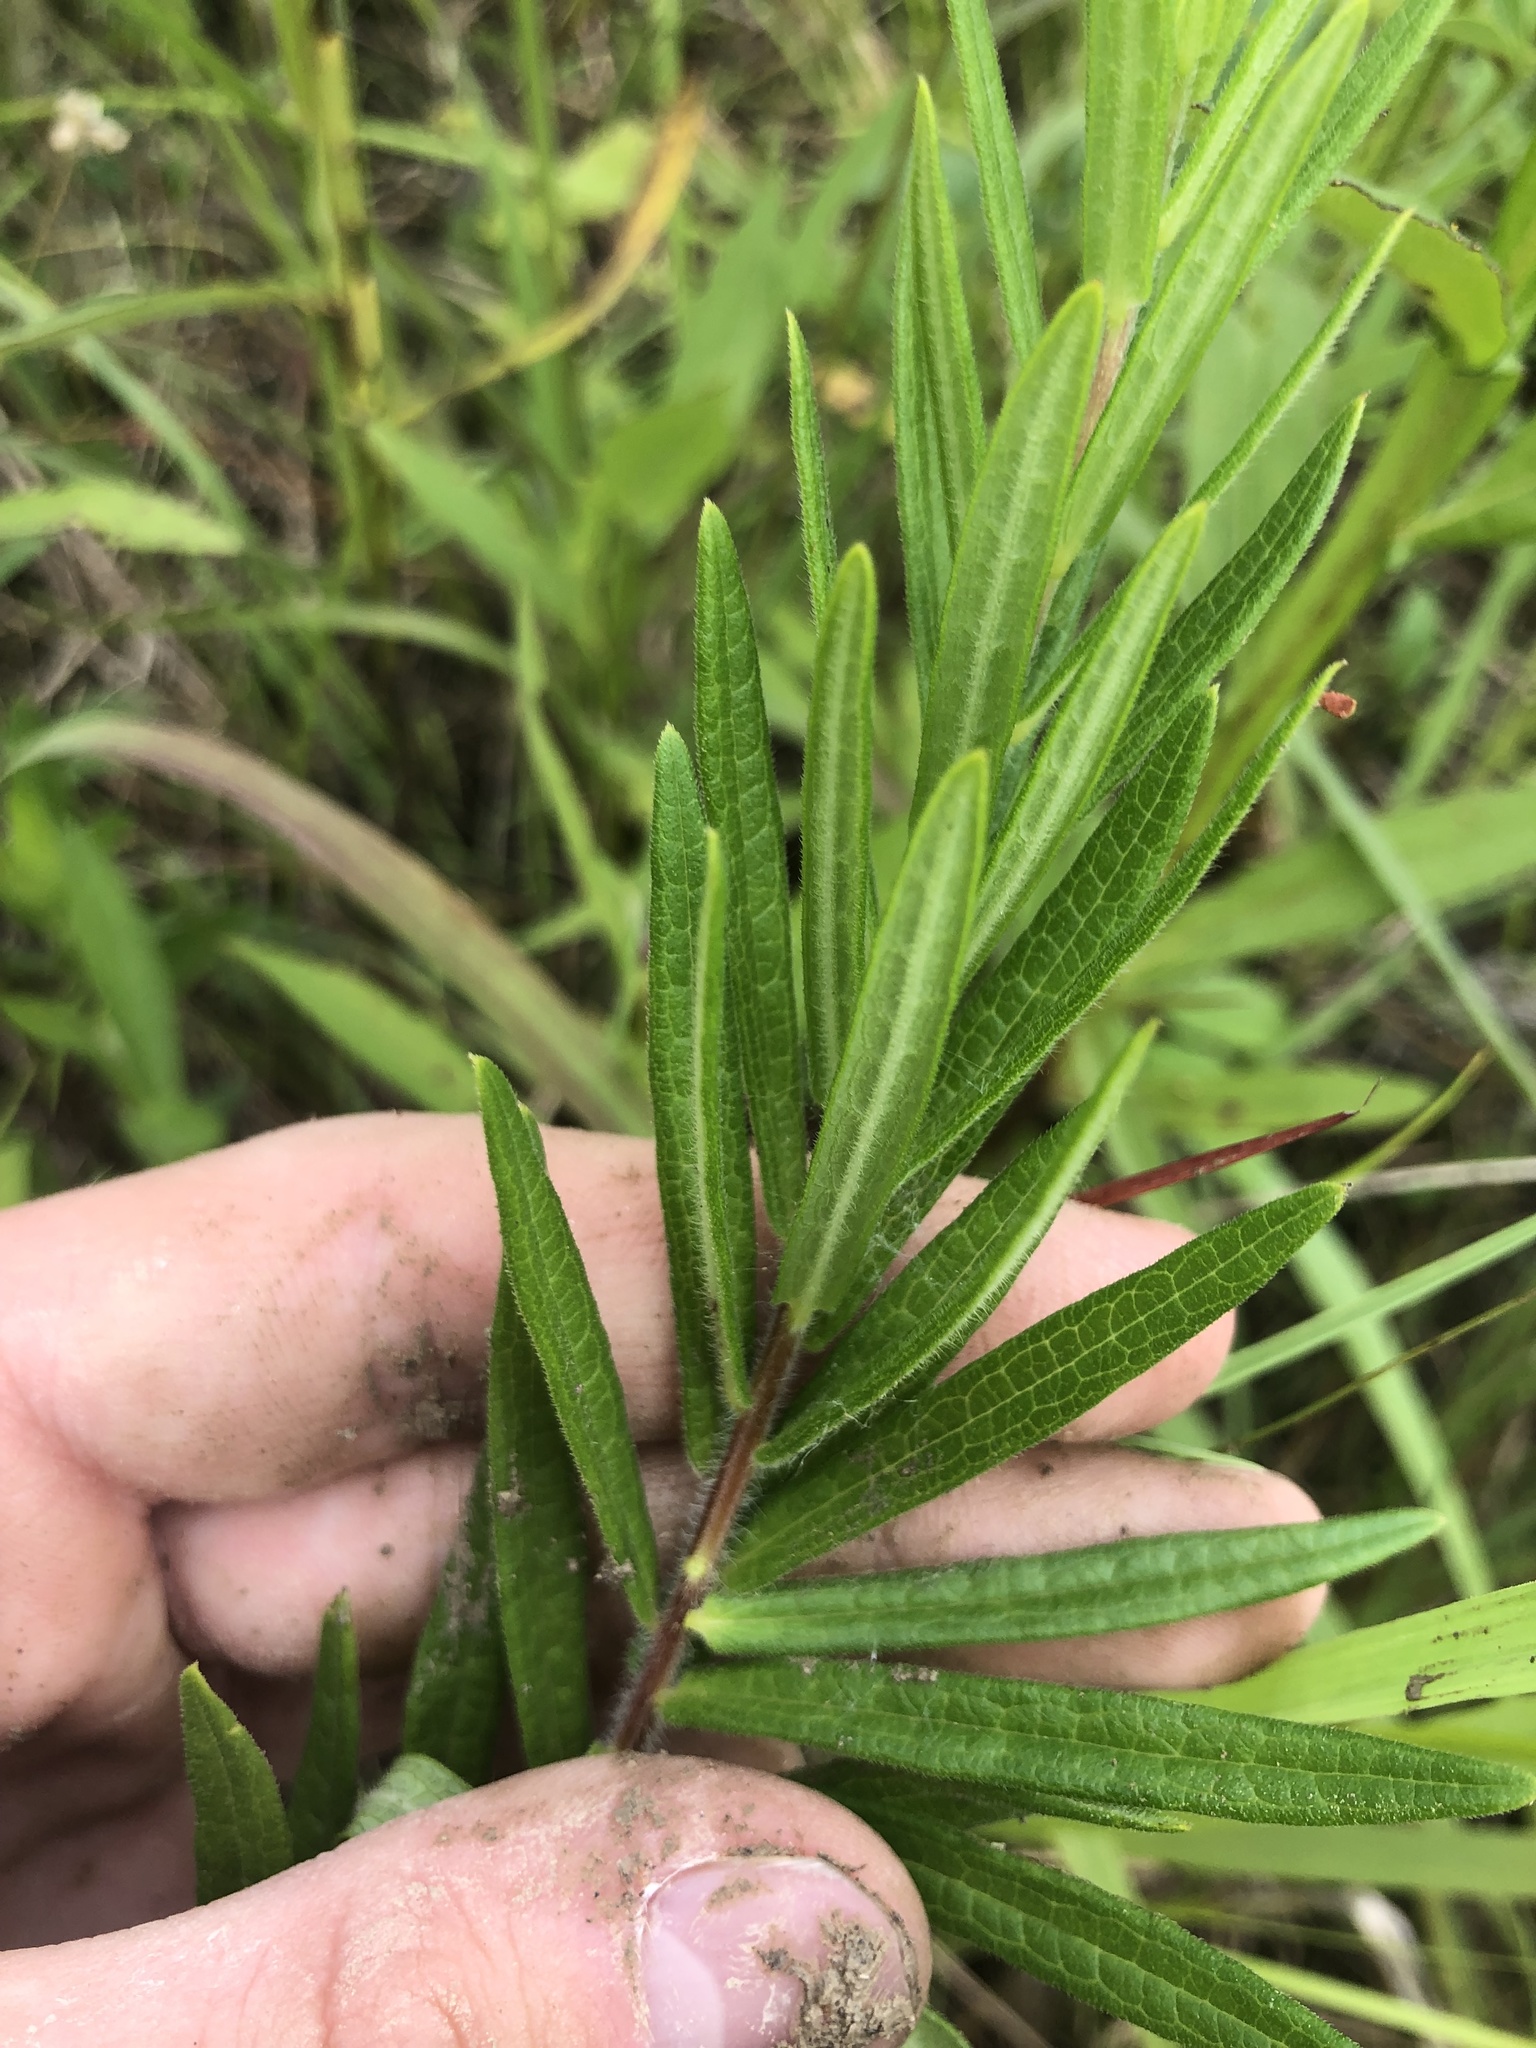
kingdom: Plantae
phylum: Tracheophyta
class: Magnoliopsida
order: Gentianales
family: Apocynaceae
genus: Asclepias
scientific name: Asclepias tuberosa
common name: Butterfly milkweed
